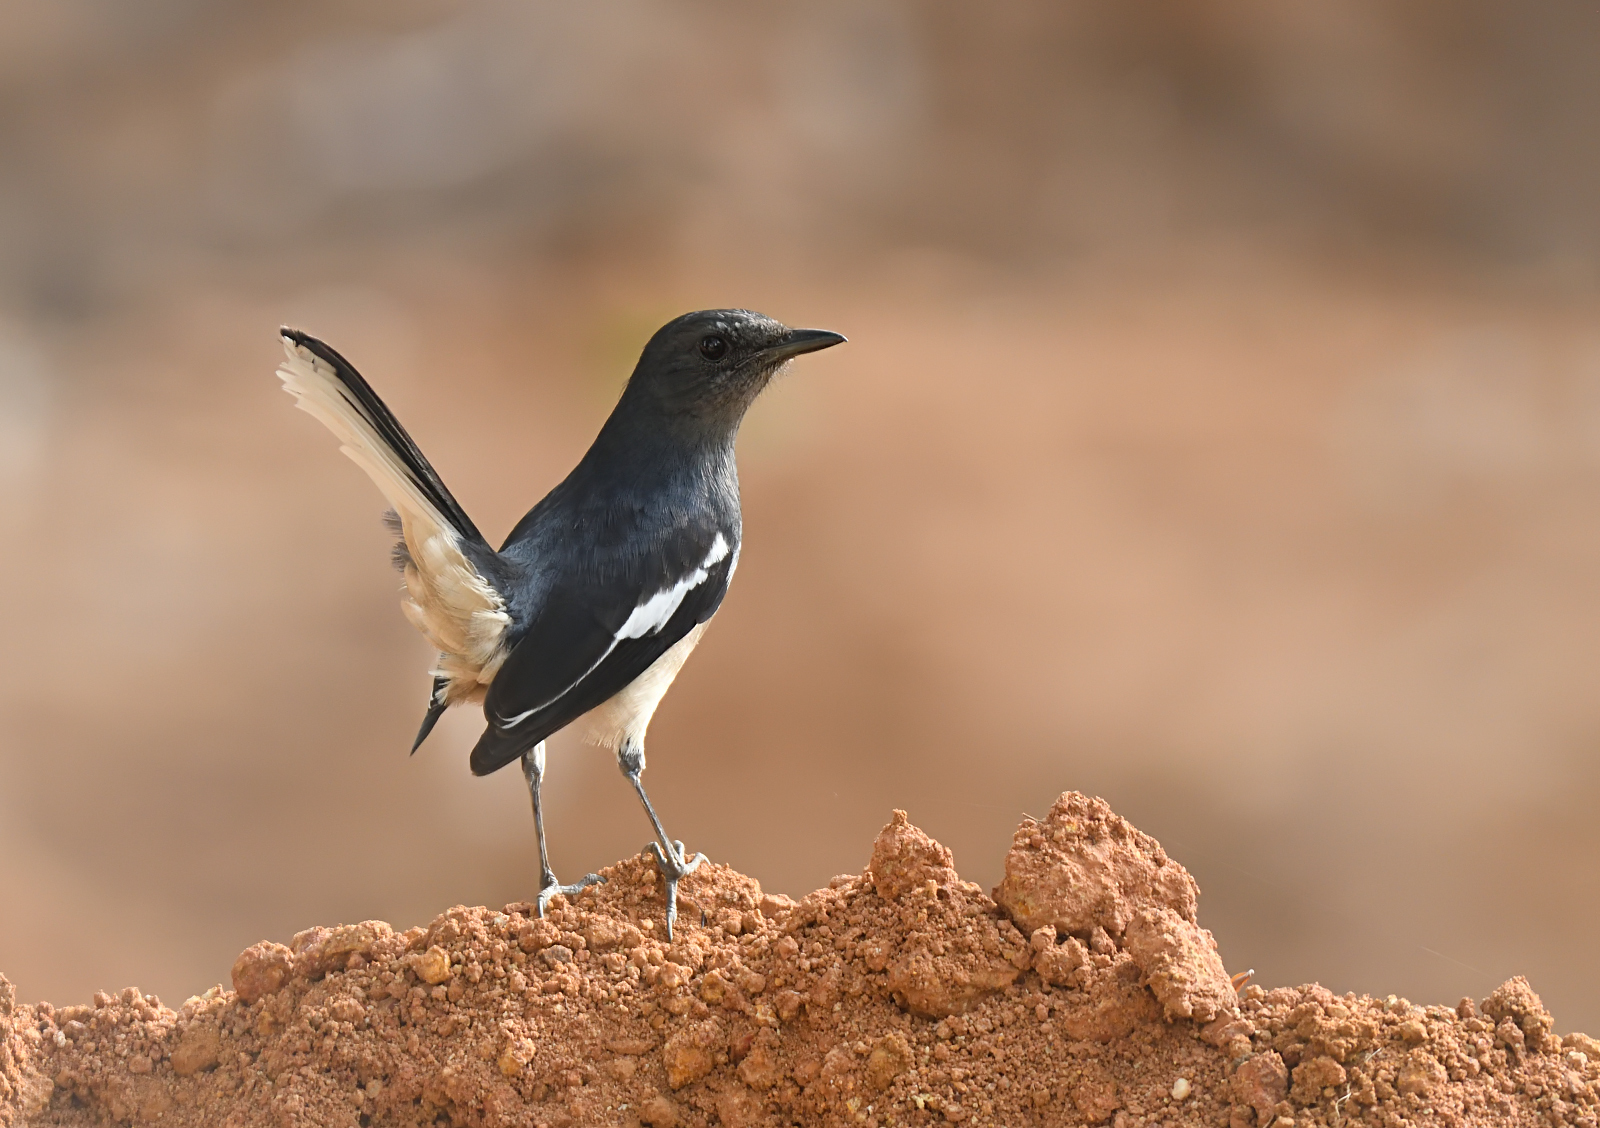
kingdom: Animalia
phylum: Chordata
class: Aves
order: Passeriformes
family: Muscicapidae
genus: Copsychus
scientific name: Copsychus saularis
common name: Oriental magpie-robin
